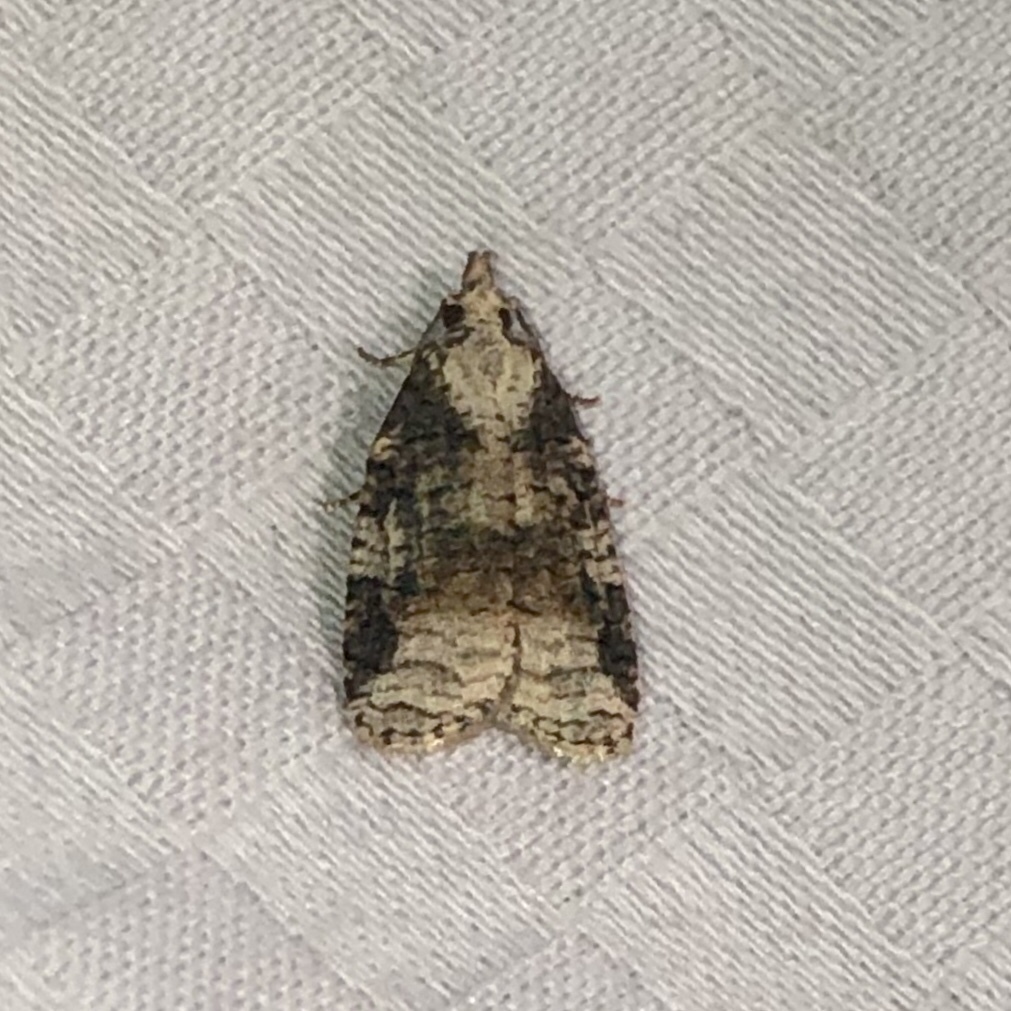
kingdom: Animalia
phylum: Arthropoda
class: Insecta
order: Lepidoptera
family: Tortricidae
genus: Platynota
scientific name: Platynota exasperatana
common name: Exasperating platynota moth
